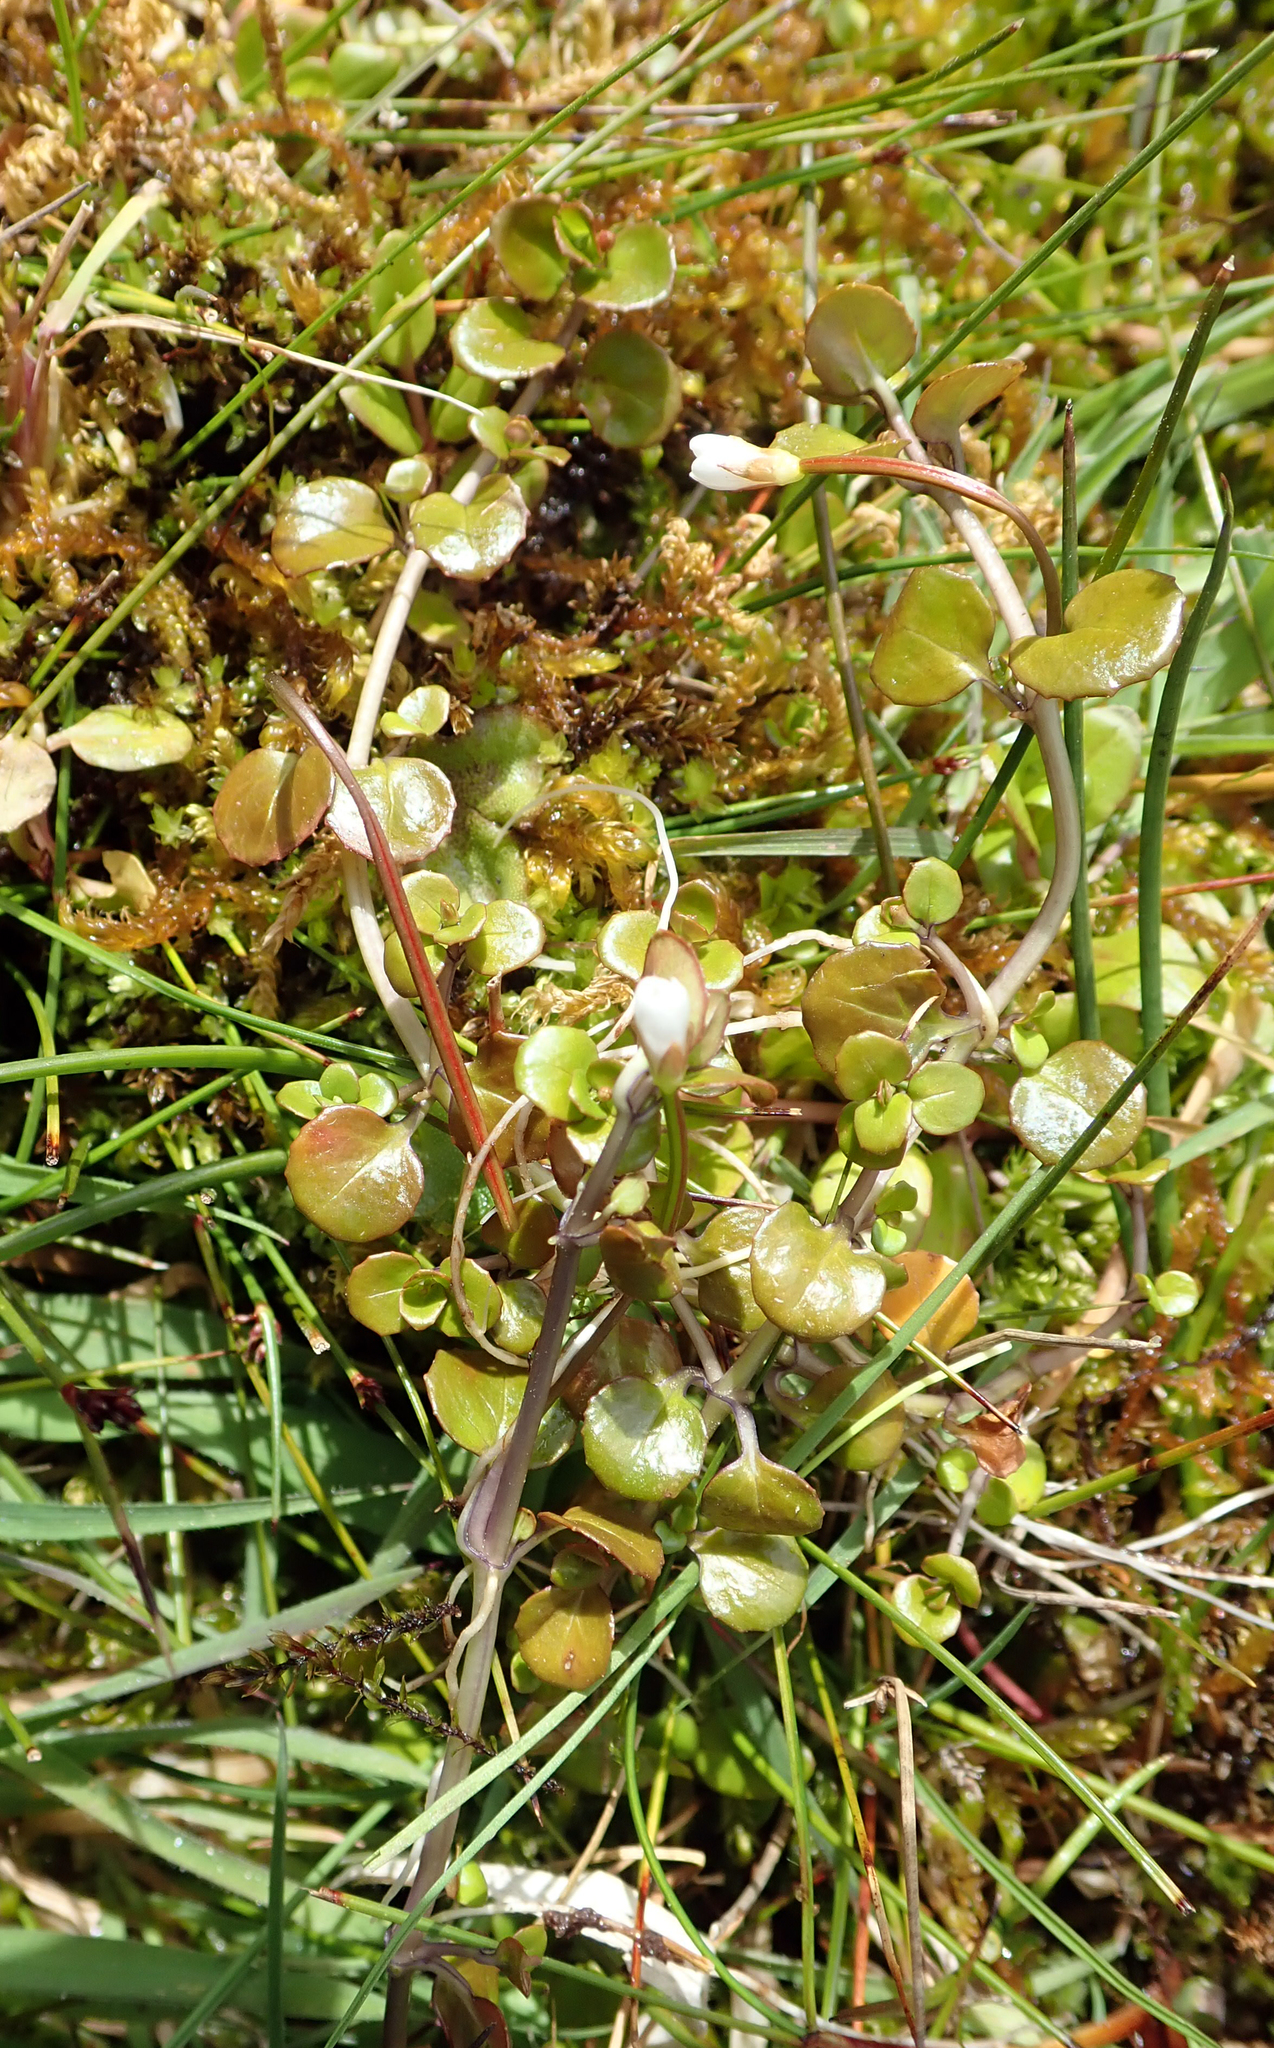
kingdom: Plantae
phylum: Tracheophyta
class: Magnoliopsida
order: Myrtales
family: Onagraceae
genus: Epilobium
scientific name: Epilobium brunnescens
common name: New zealand willowherb
